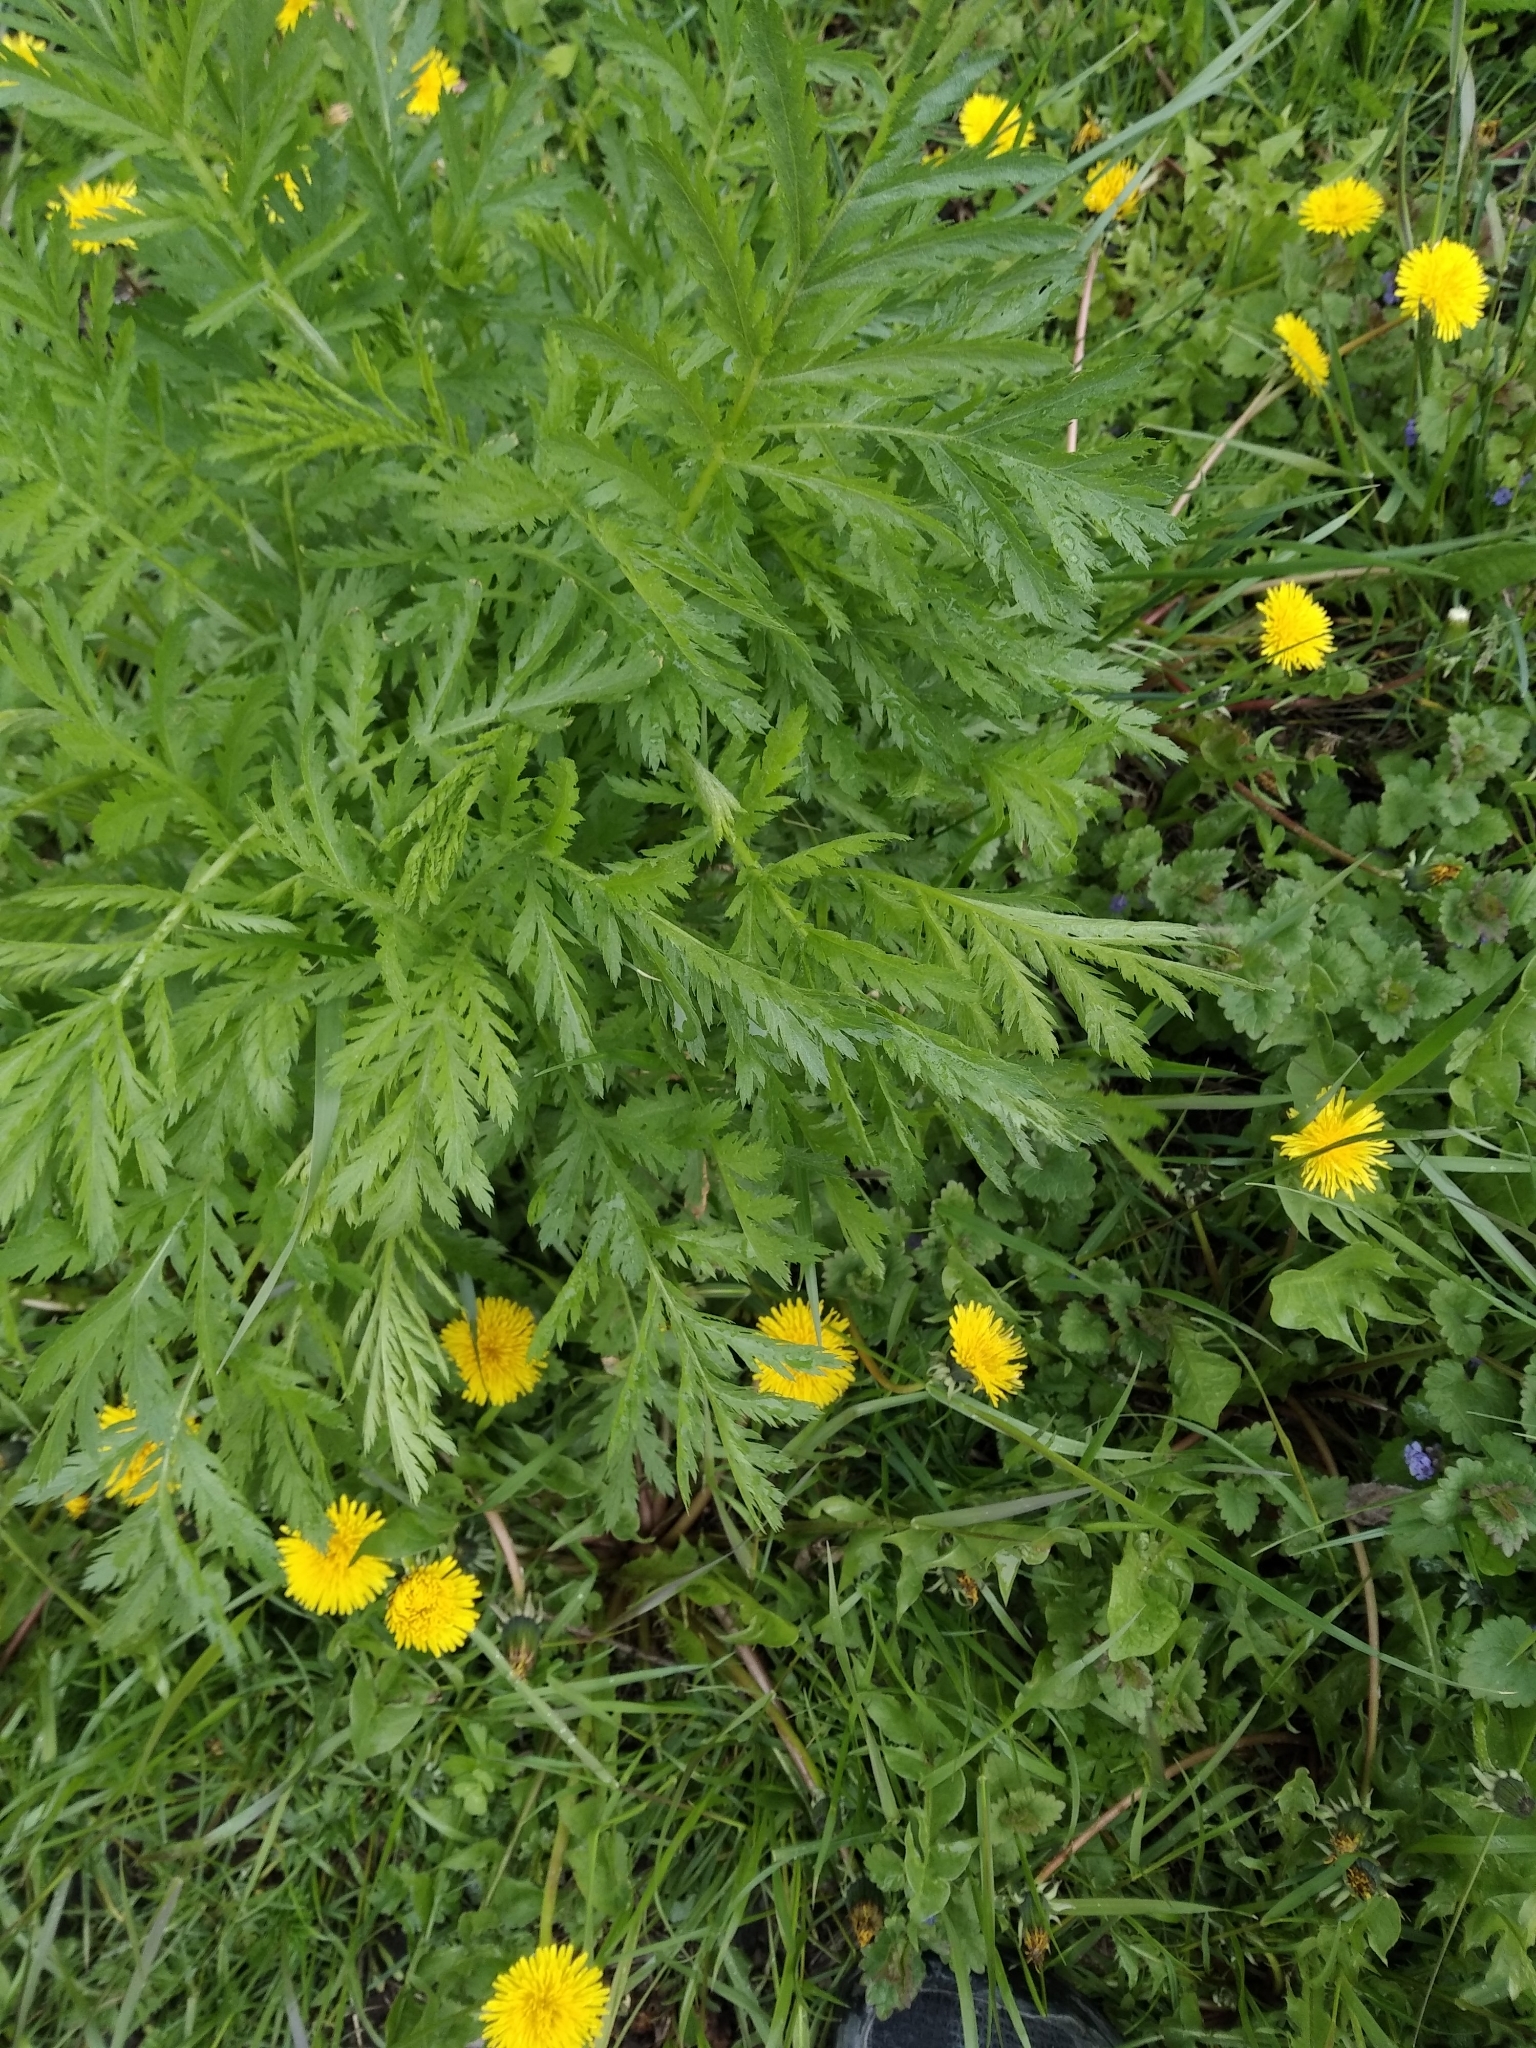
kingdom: Plantae
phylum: Tracheophyta
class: Magnoliopsida
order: Asterales
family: Asteraceae
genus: Tanacetum
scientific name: Tanacetum vulgare
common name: Common tansy
